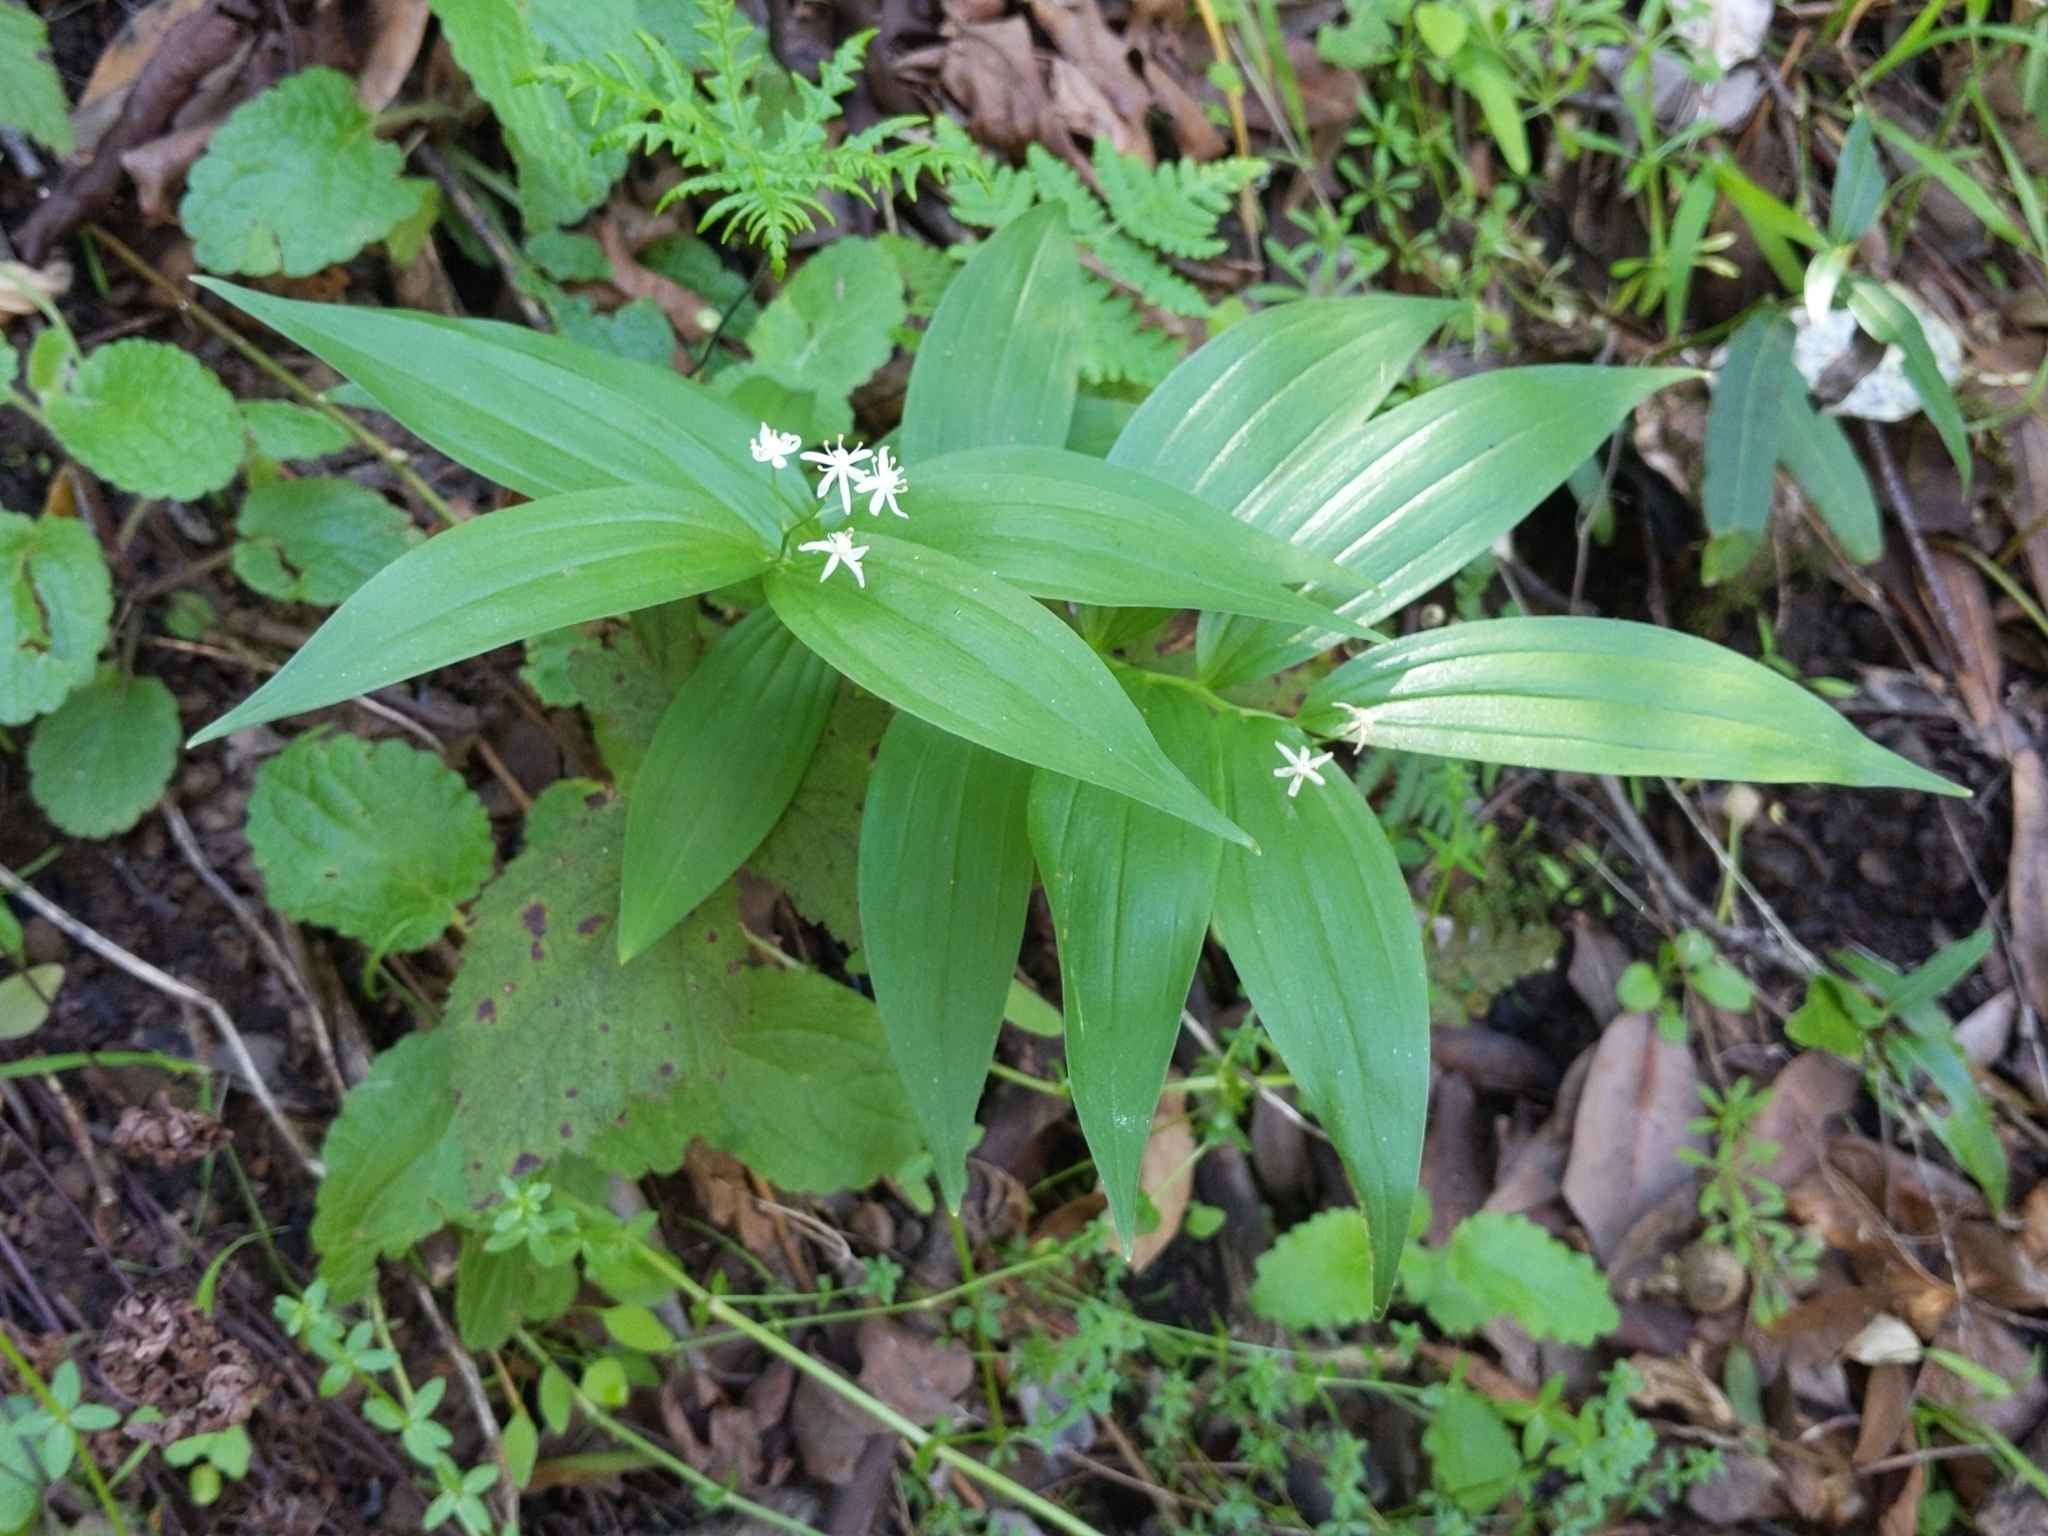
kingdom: Plantae
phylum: Tracheophyta
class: Liliopsida
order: Asparagales
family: Asparagaceae
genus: Maianthemum
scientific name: Maianthemum stellatum
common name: Little false solomon's seal
